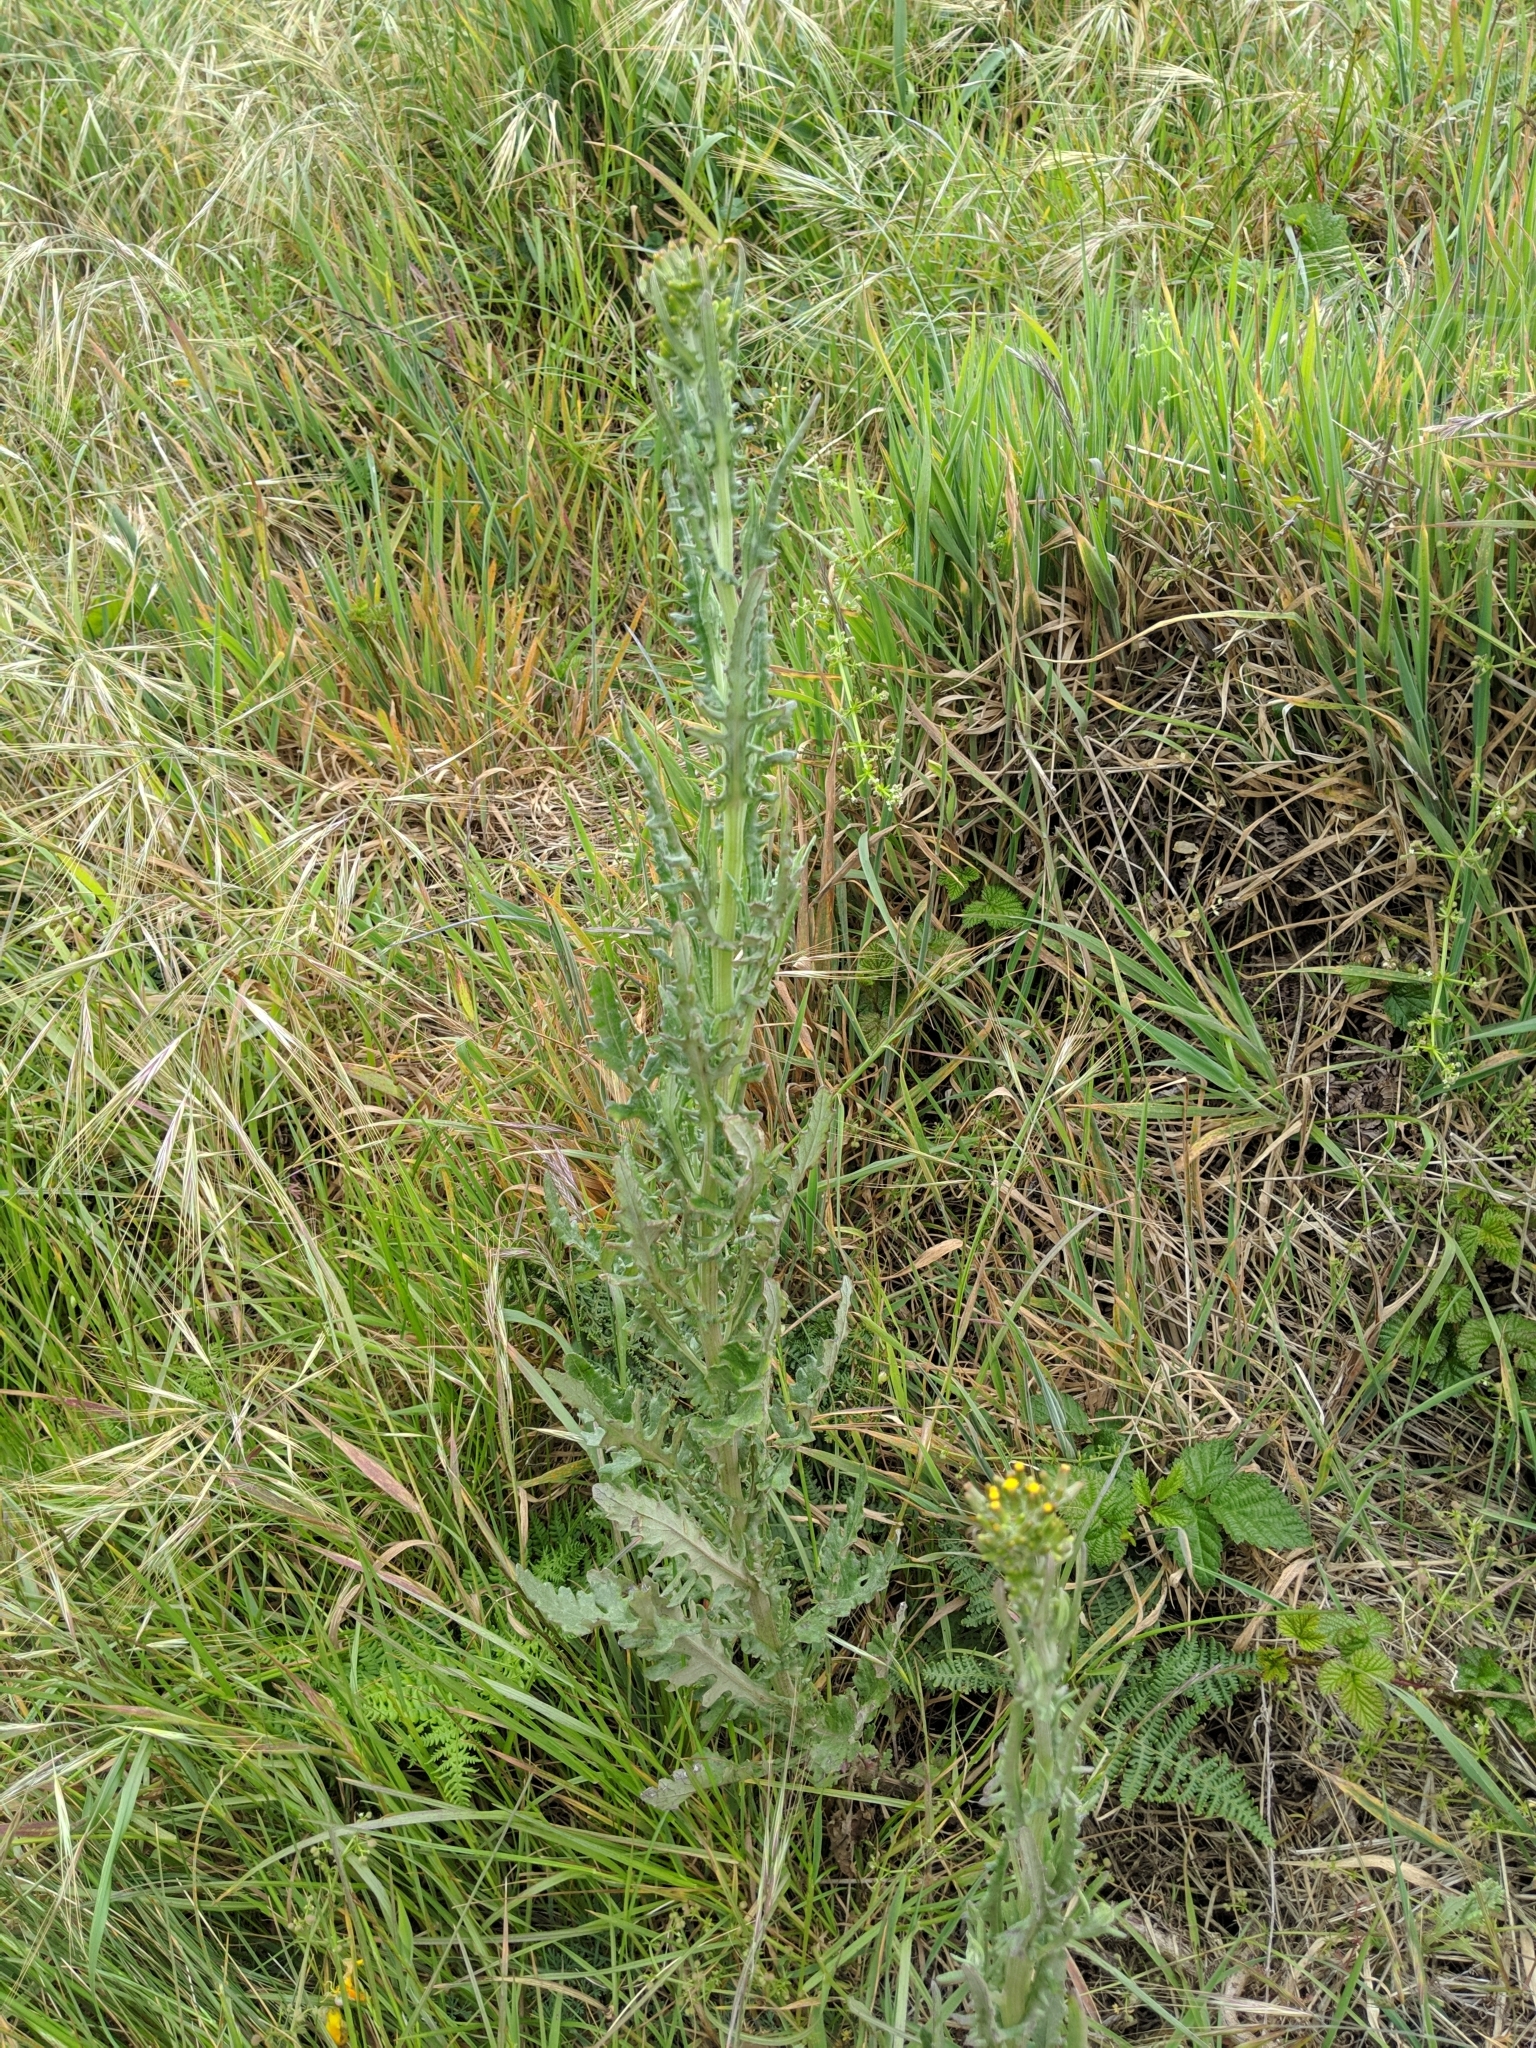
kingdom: Plantae
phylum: Tracheophyta
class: Magnoliopsida
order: Asterales
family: Asteraceae
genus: Senecio
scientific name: Senecio glomeratus
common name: Cutleaf burnweed
